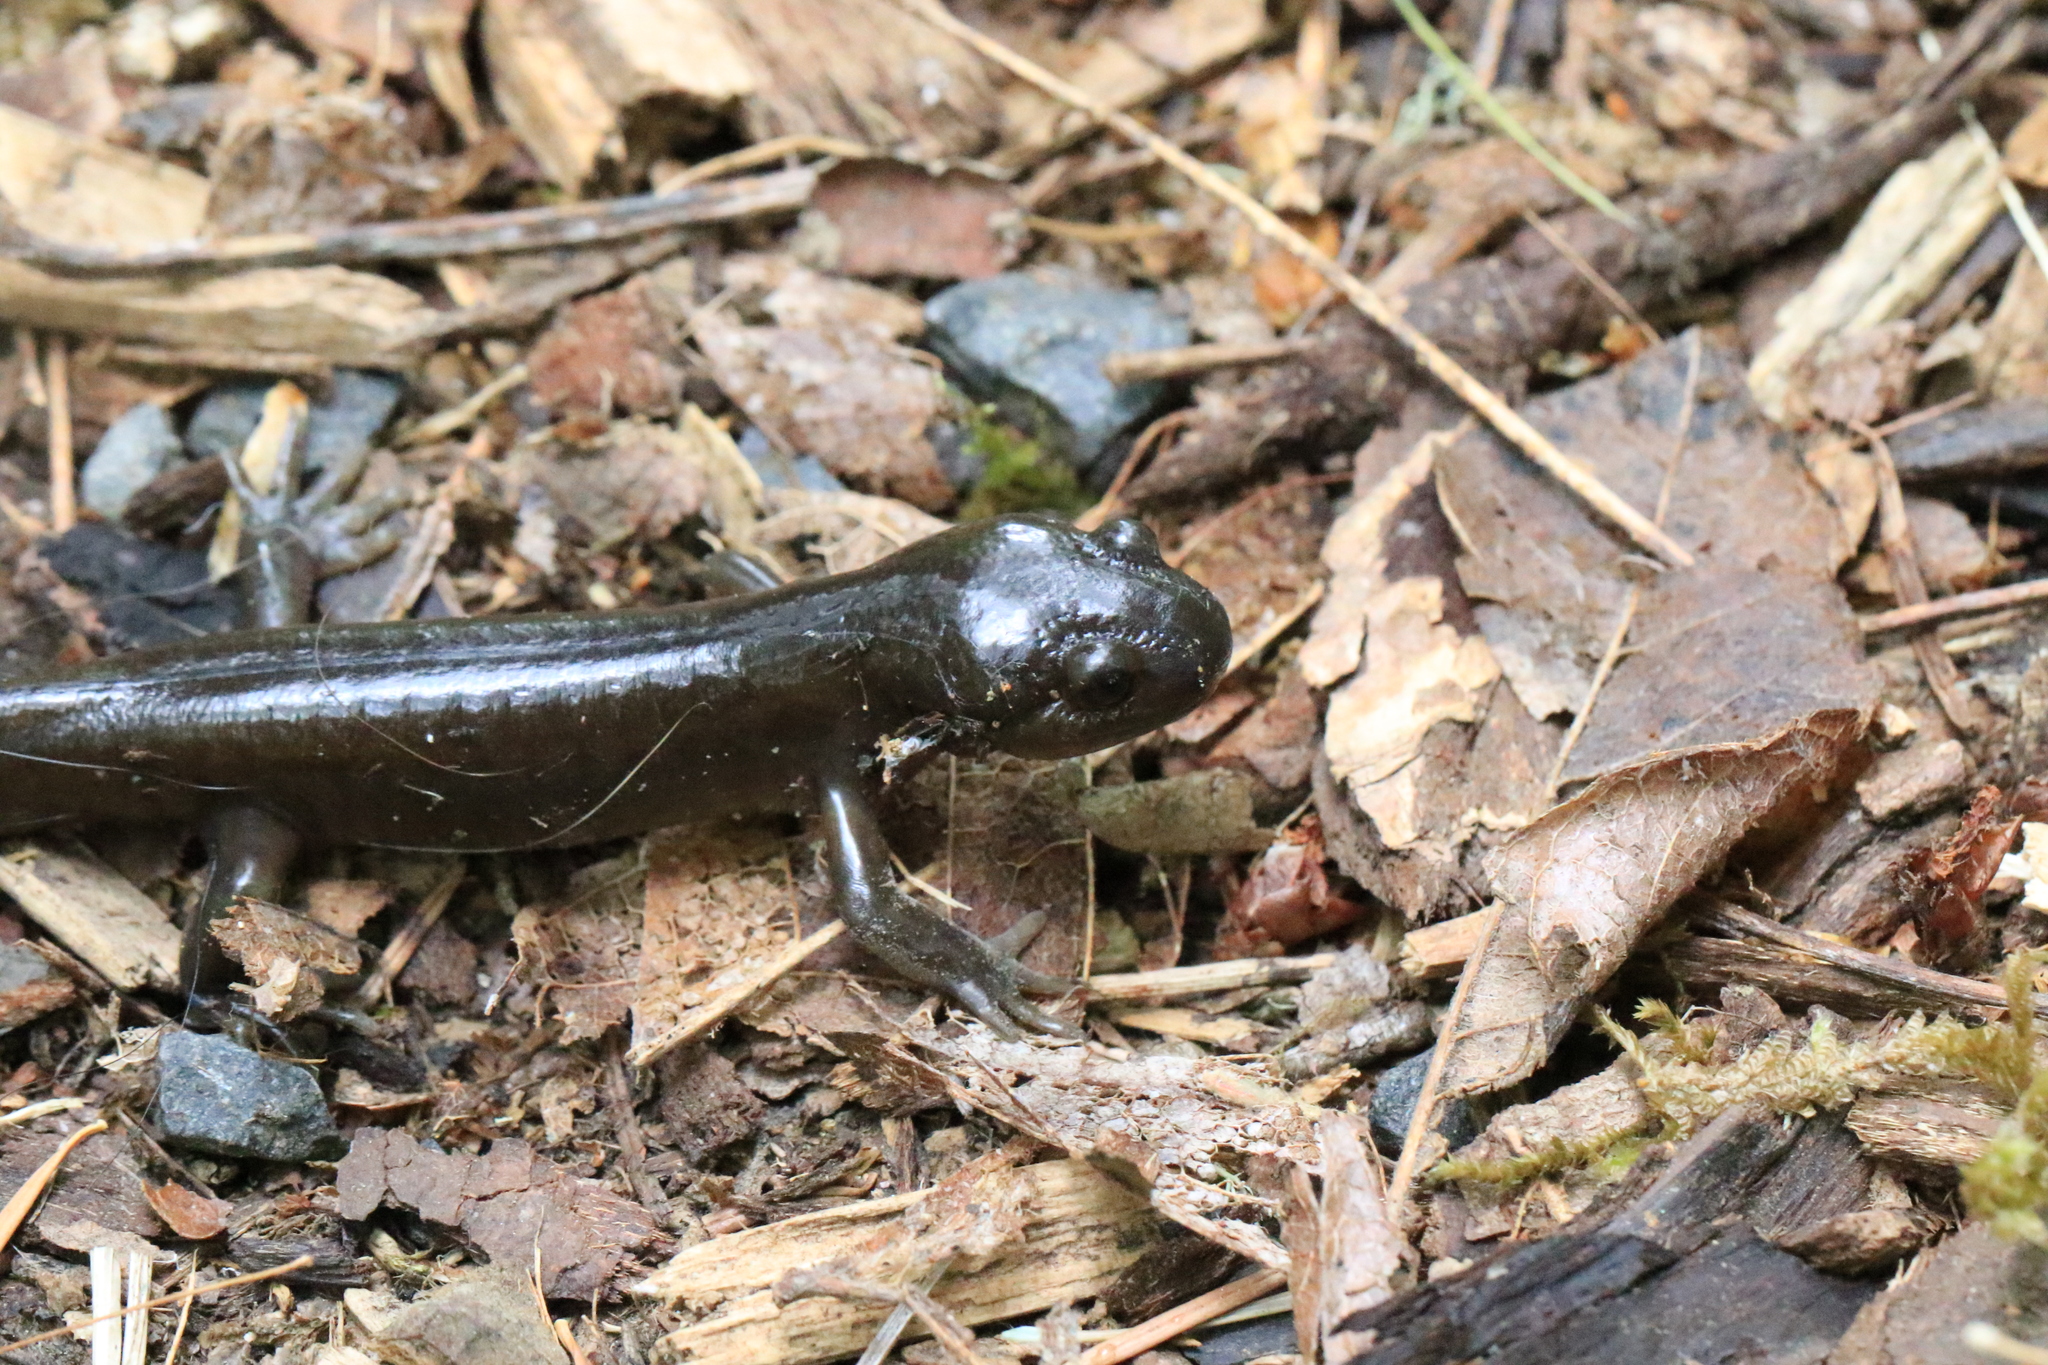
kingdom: Animalia
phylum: Chordata
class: Amphibia
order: Caudata
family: Ambystomatidae
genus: Ambystoma
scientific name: Ambystoma gracile
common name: Northwestern salamander
